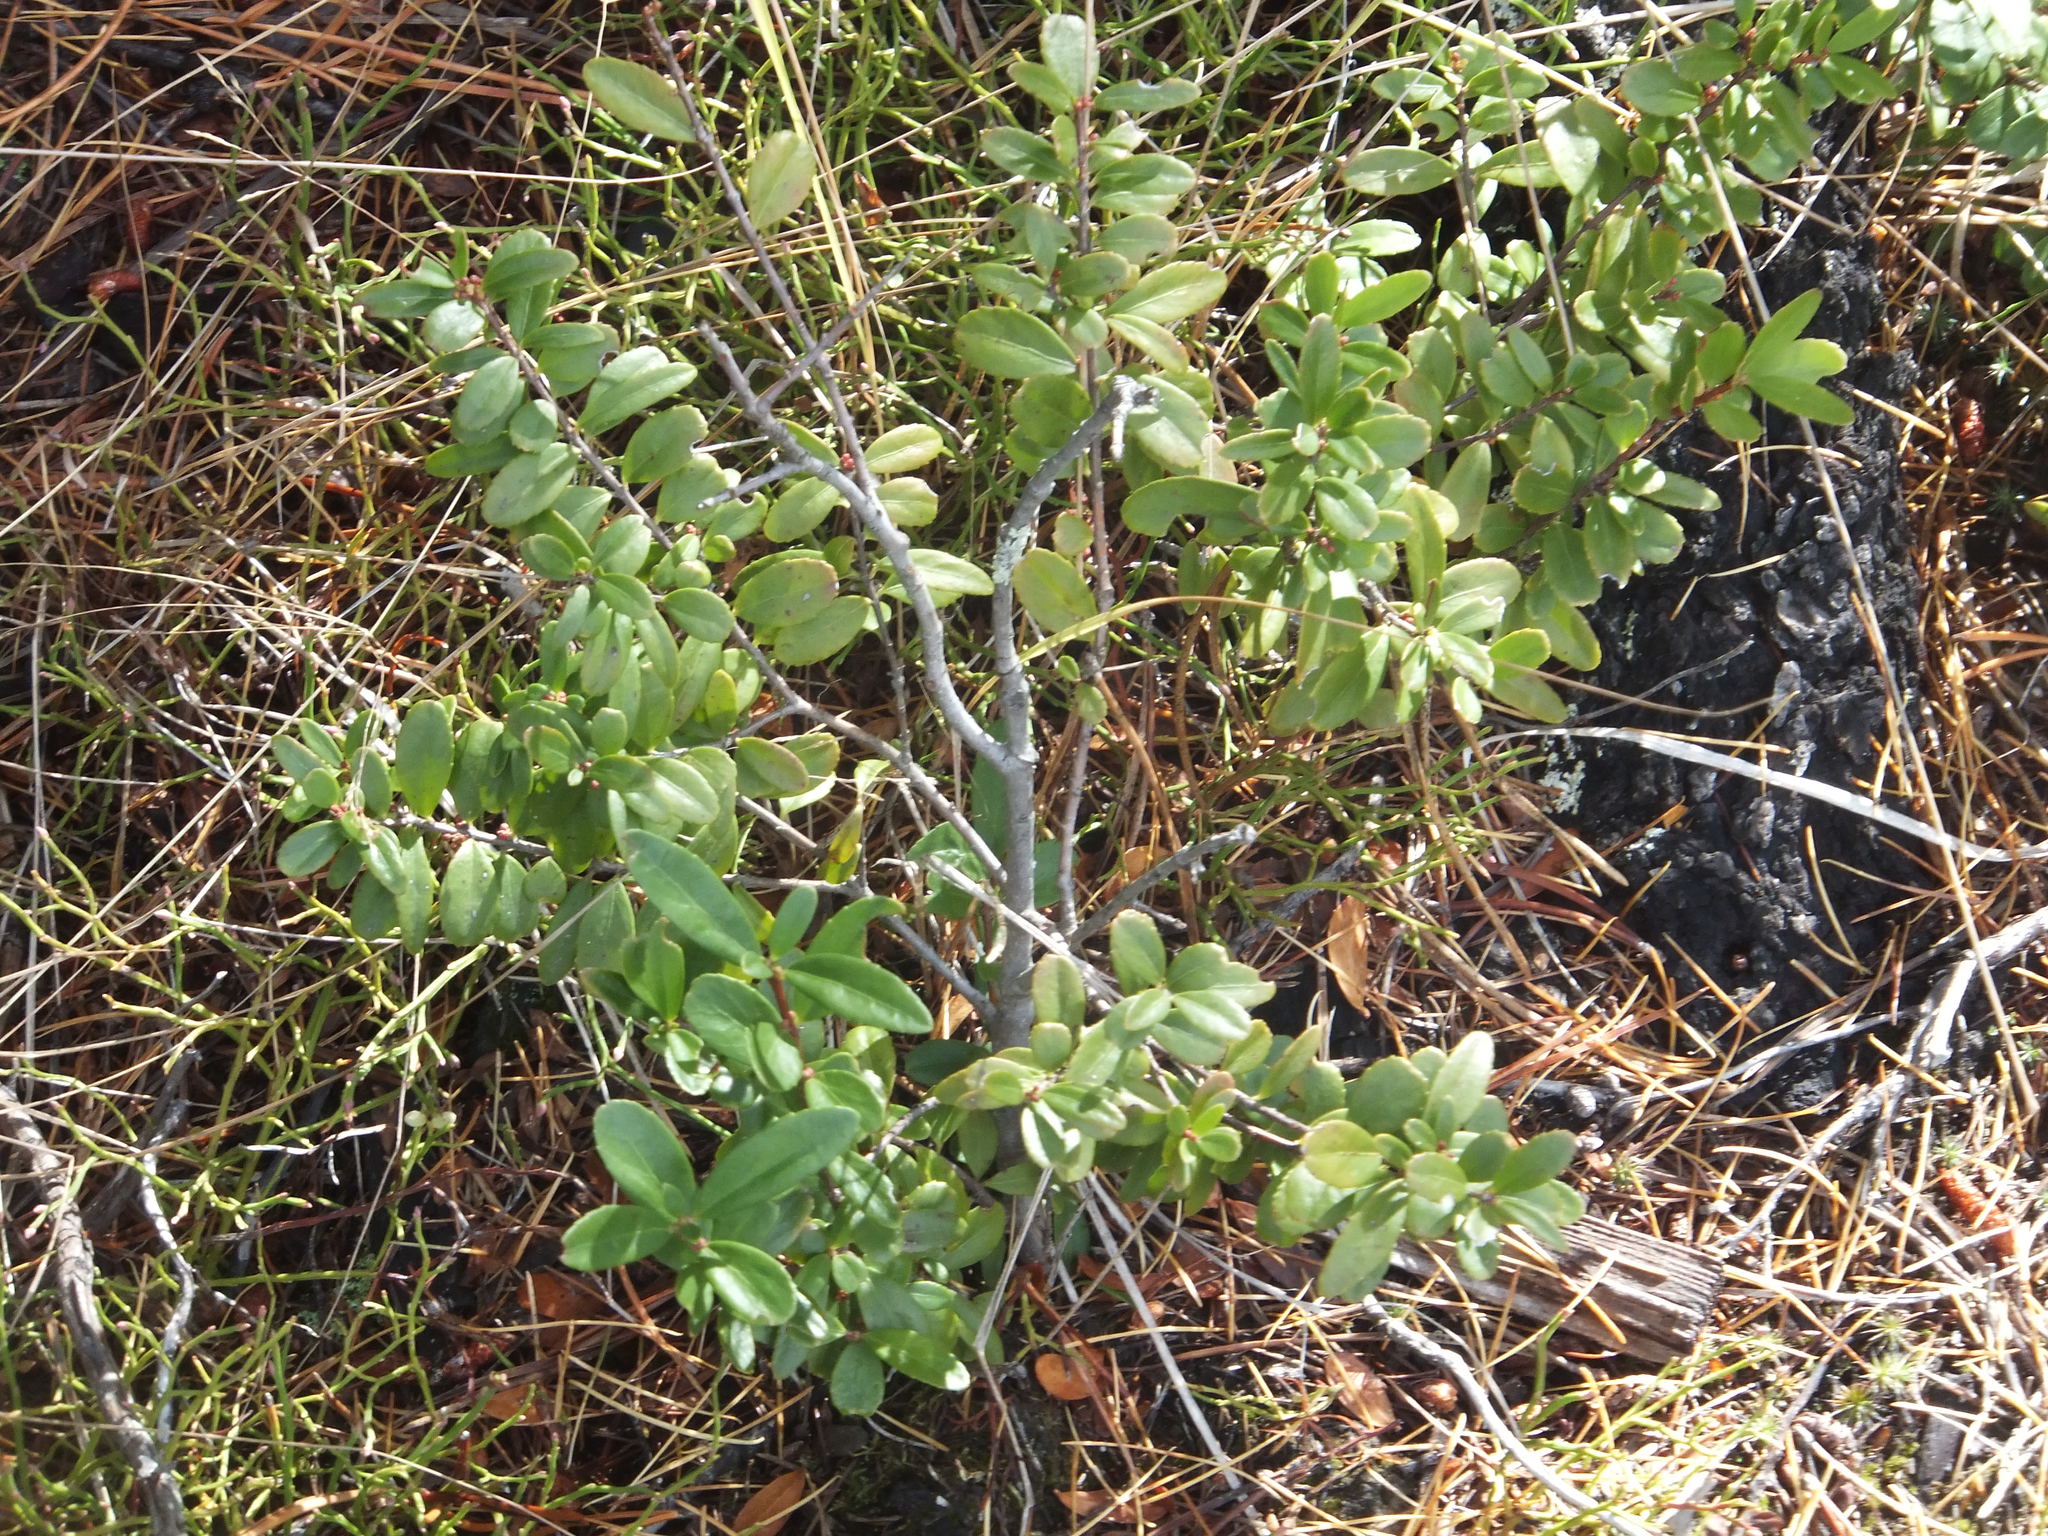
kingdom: Plantae
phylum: Tracheophyta
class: Magnoliopsida
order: Celastrales
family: Celastraceae
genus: Paxistima
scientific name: Paxistima myrsinites
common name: Mountain-lover
